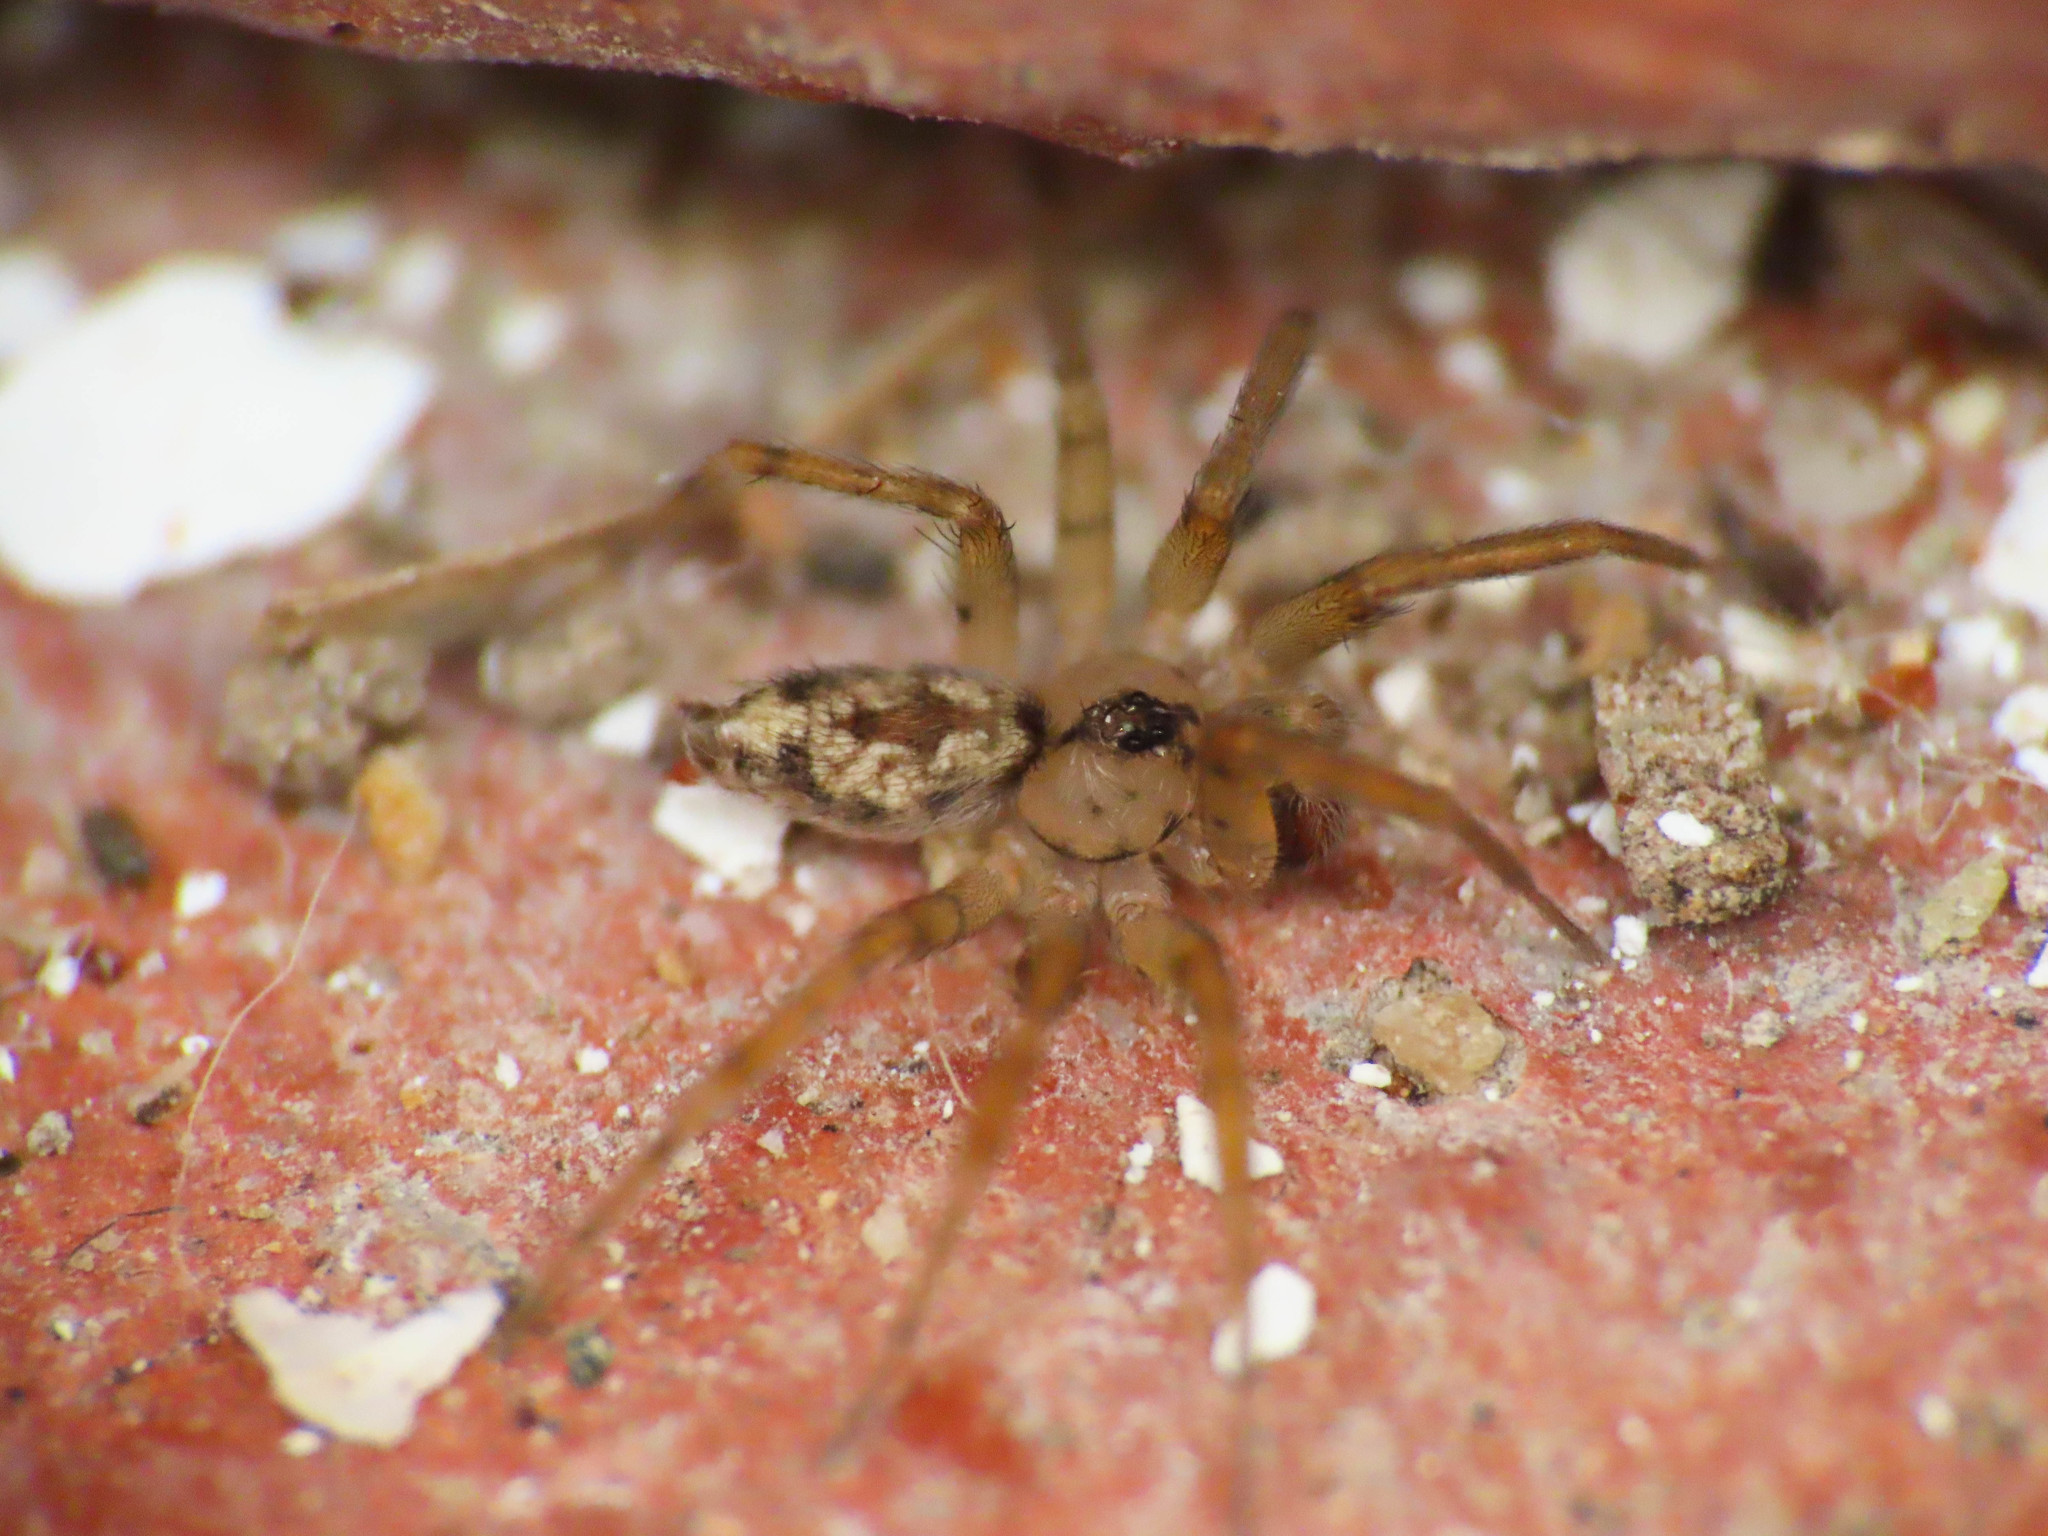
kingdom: Animalia
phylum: Arthropoda
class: Arachnida
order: Araneae
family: Oecobiidae
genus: Oecobius
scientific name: Oecobius navus
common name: Flatmesh weaver
